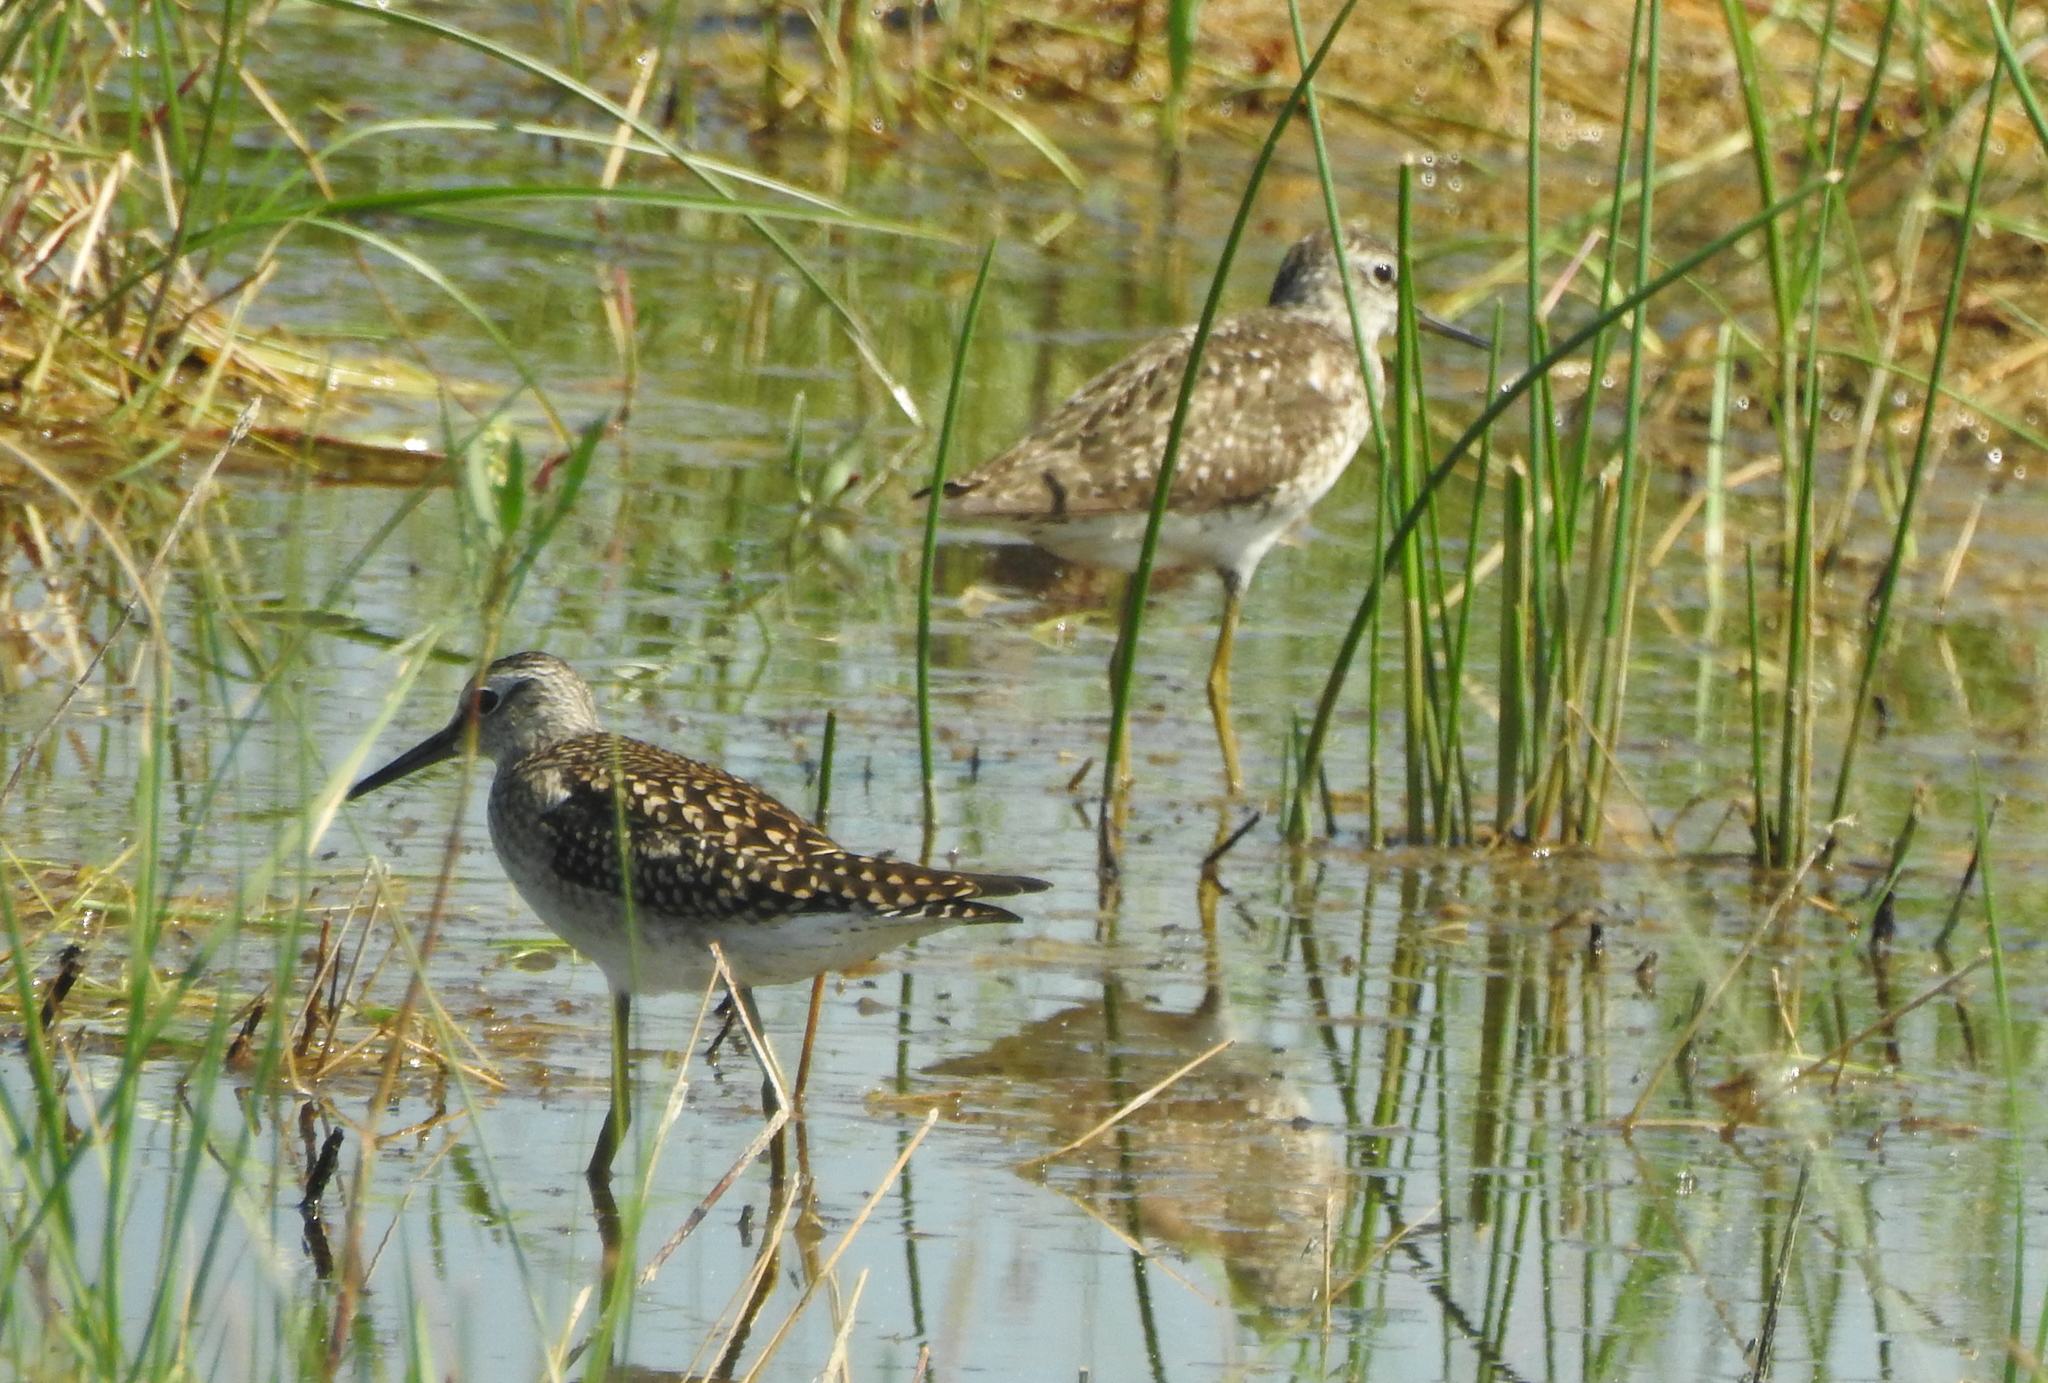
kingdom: Animalia
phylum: Chordata
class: Aves
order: Charadriiformes
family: Scolopacidae
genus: Tringa
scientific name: Tringa glareola
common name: Wood sandpiper
